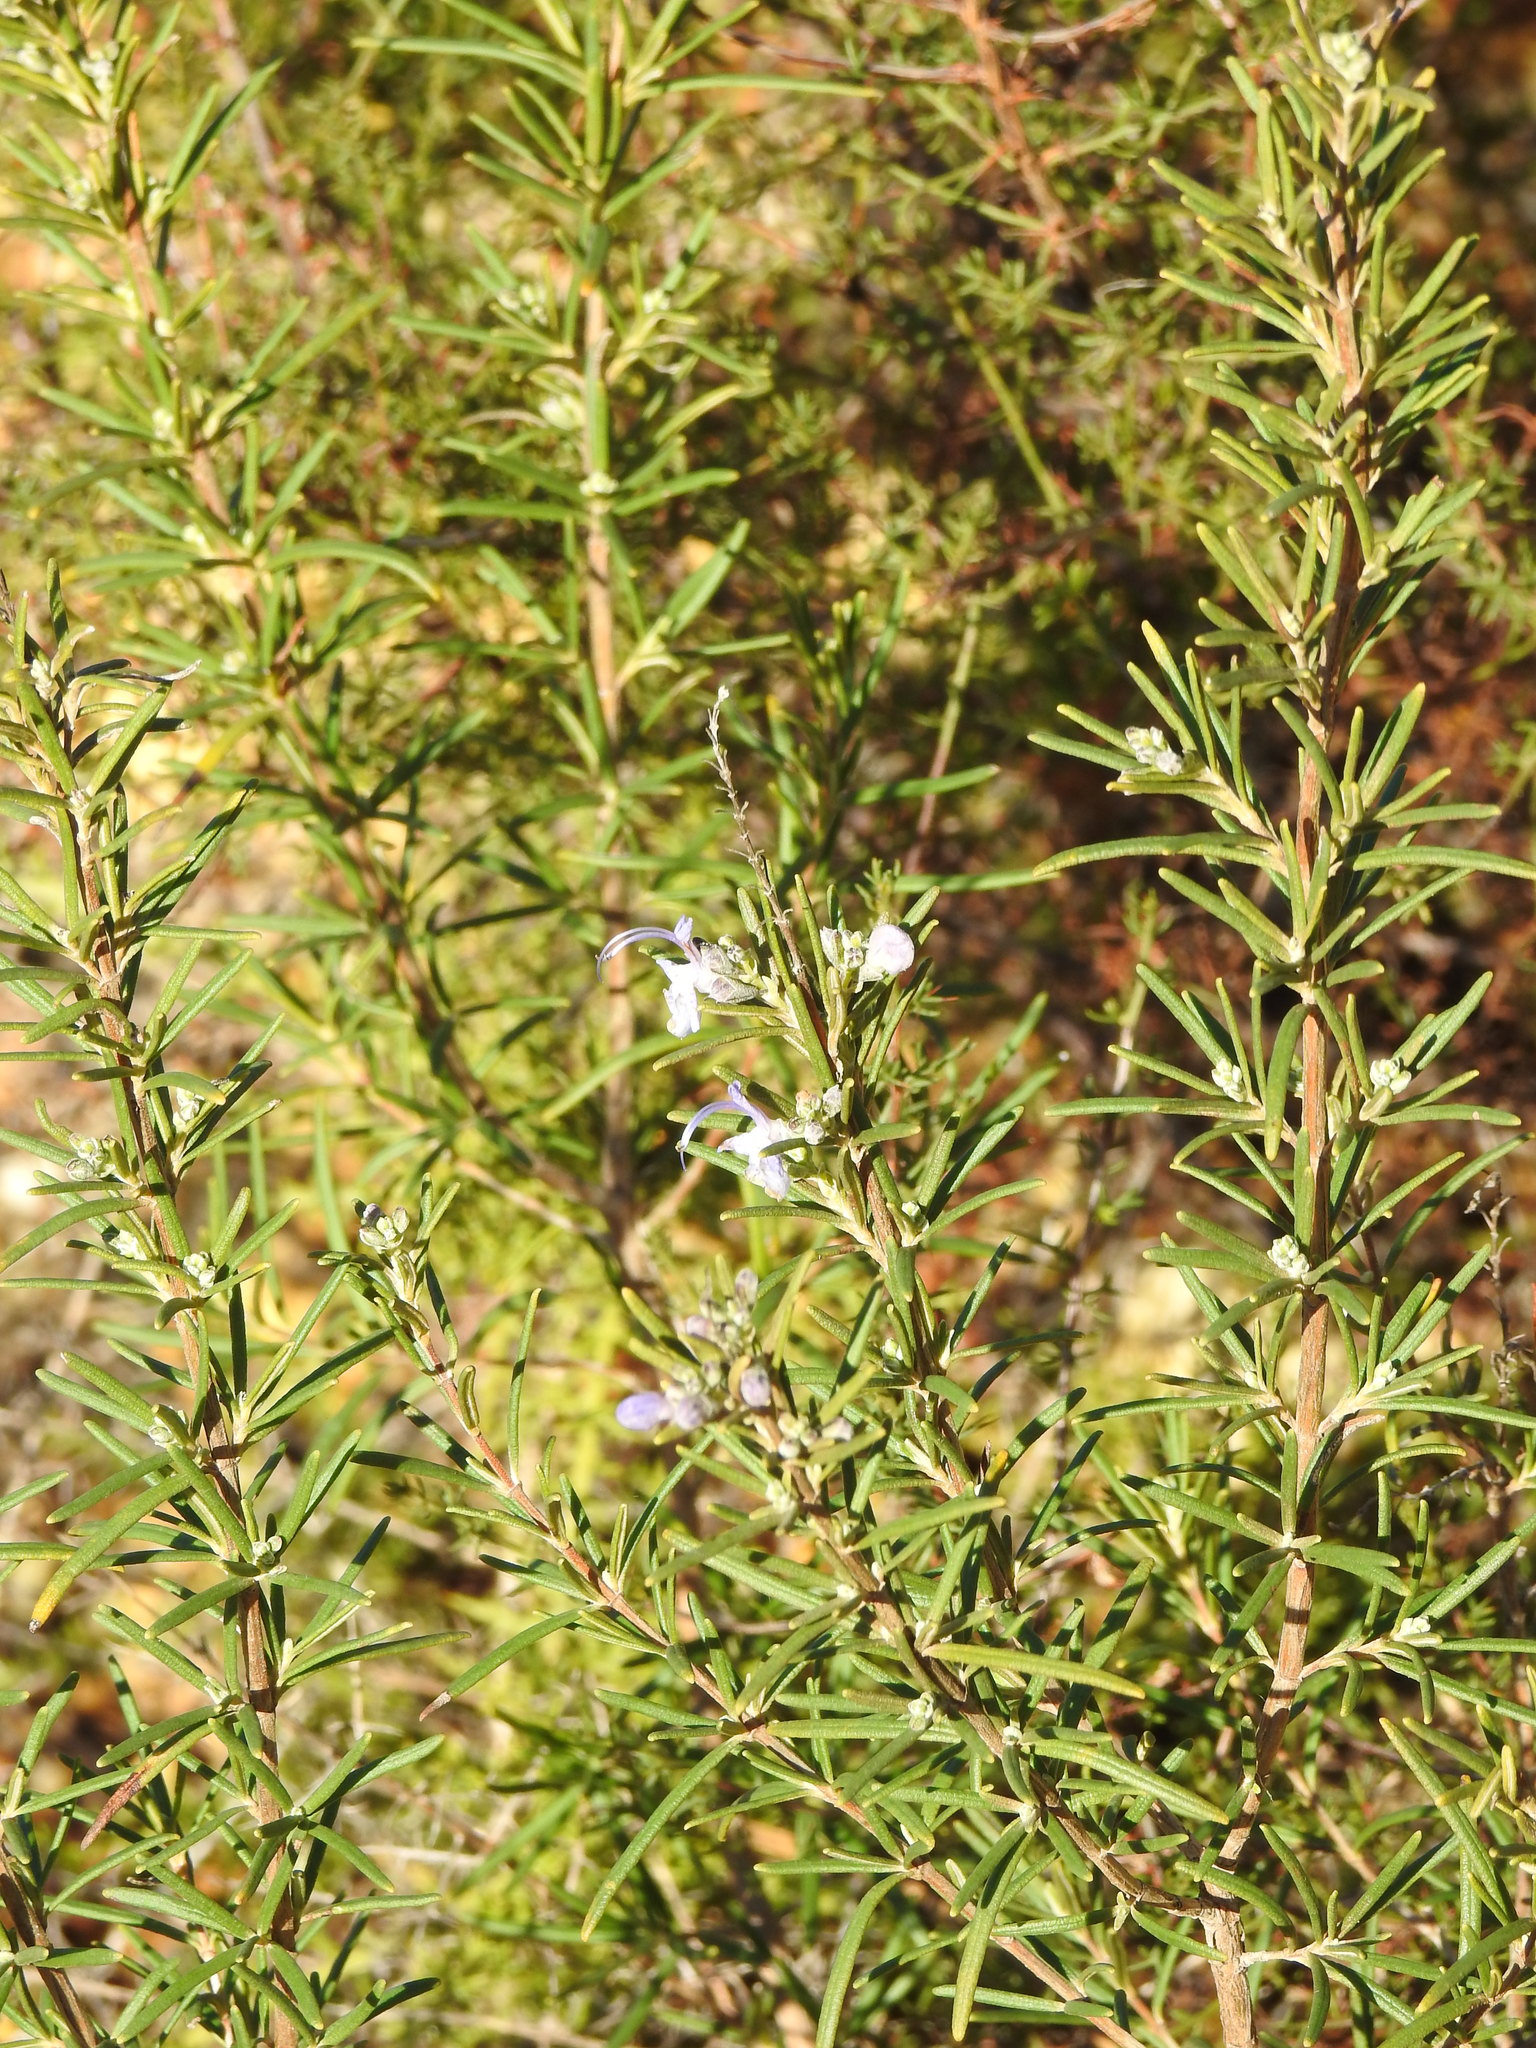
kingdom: Plantae
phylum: Tracheophyta
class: Magnoliopsida
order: Lamiales
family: Lamiaceae
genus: Salvia
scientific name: Salvia rosmarinus
